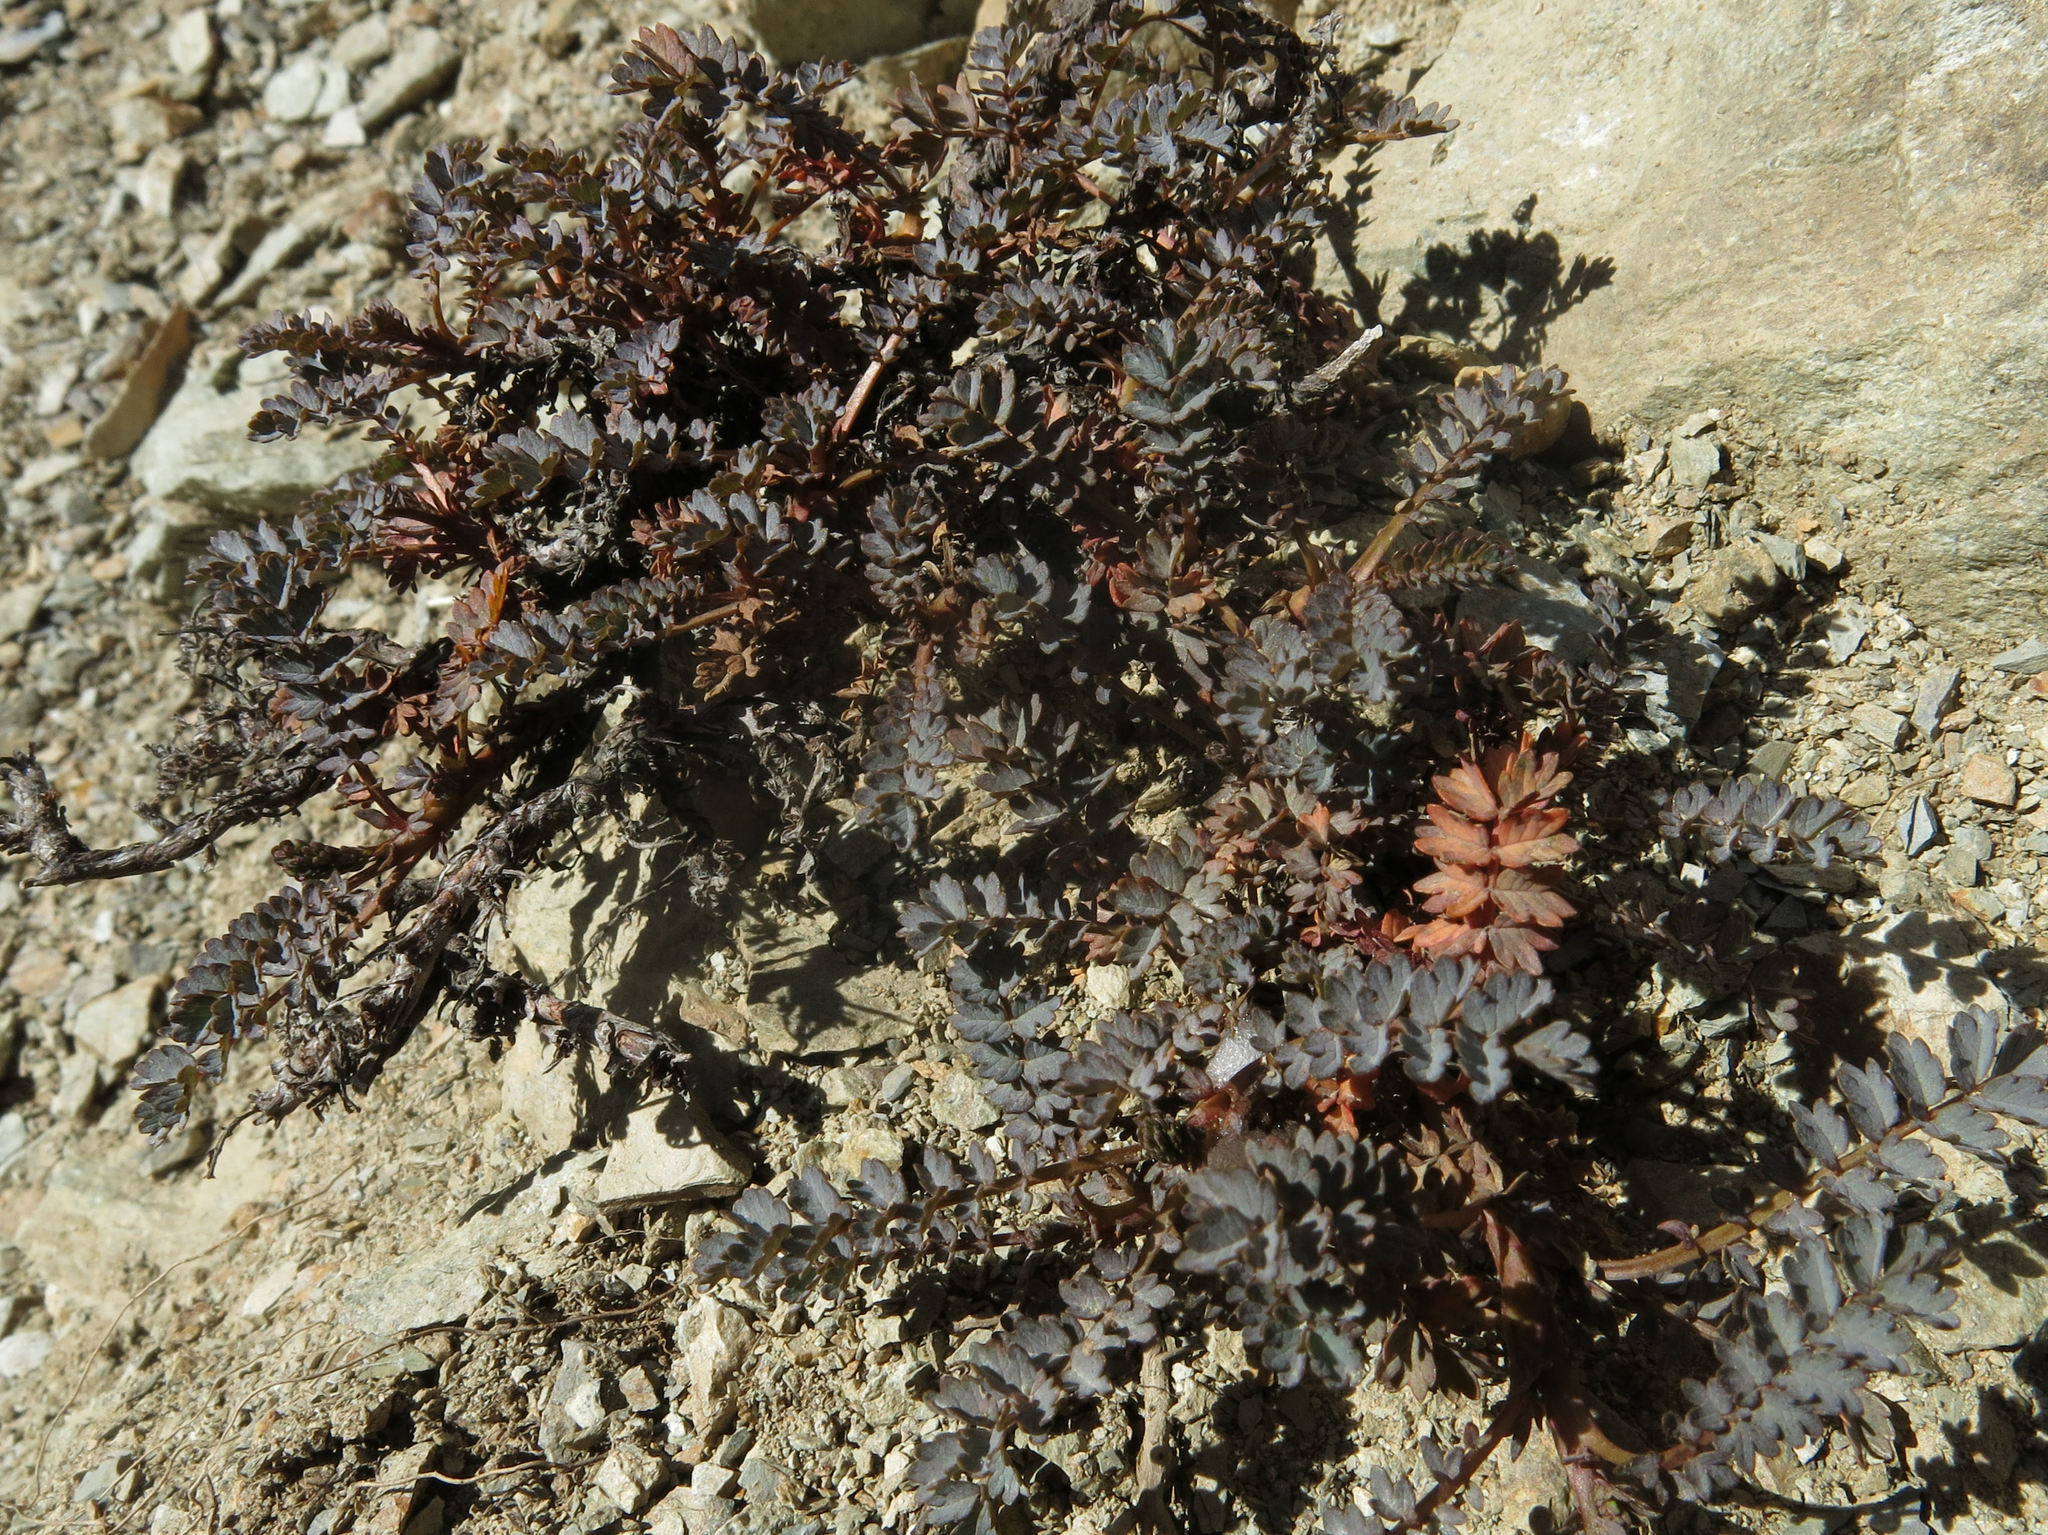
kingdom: Plantae
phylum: Tracheophyta
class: Magnoliopsida
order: Rosales
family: Rosaceae
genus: Acaena
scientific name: Acaena saccaticupula
